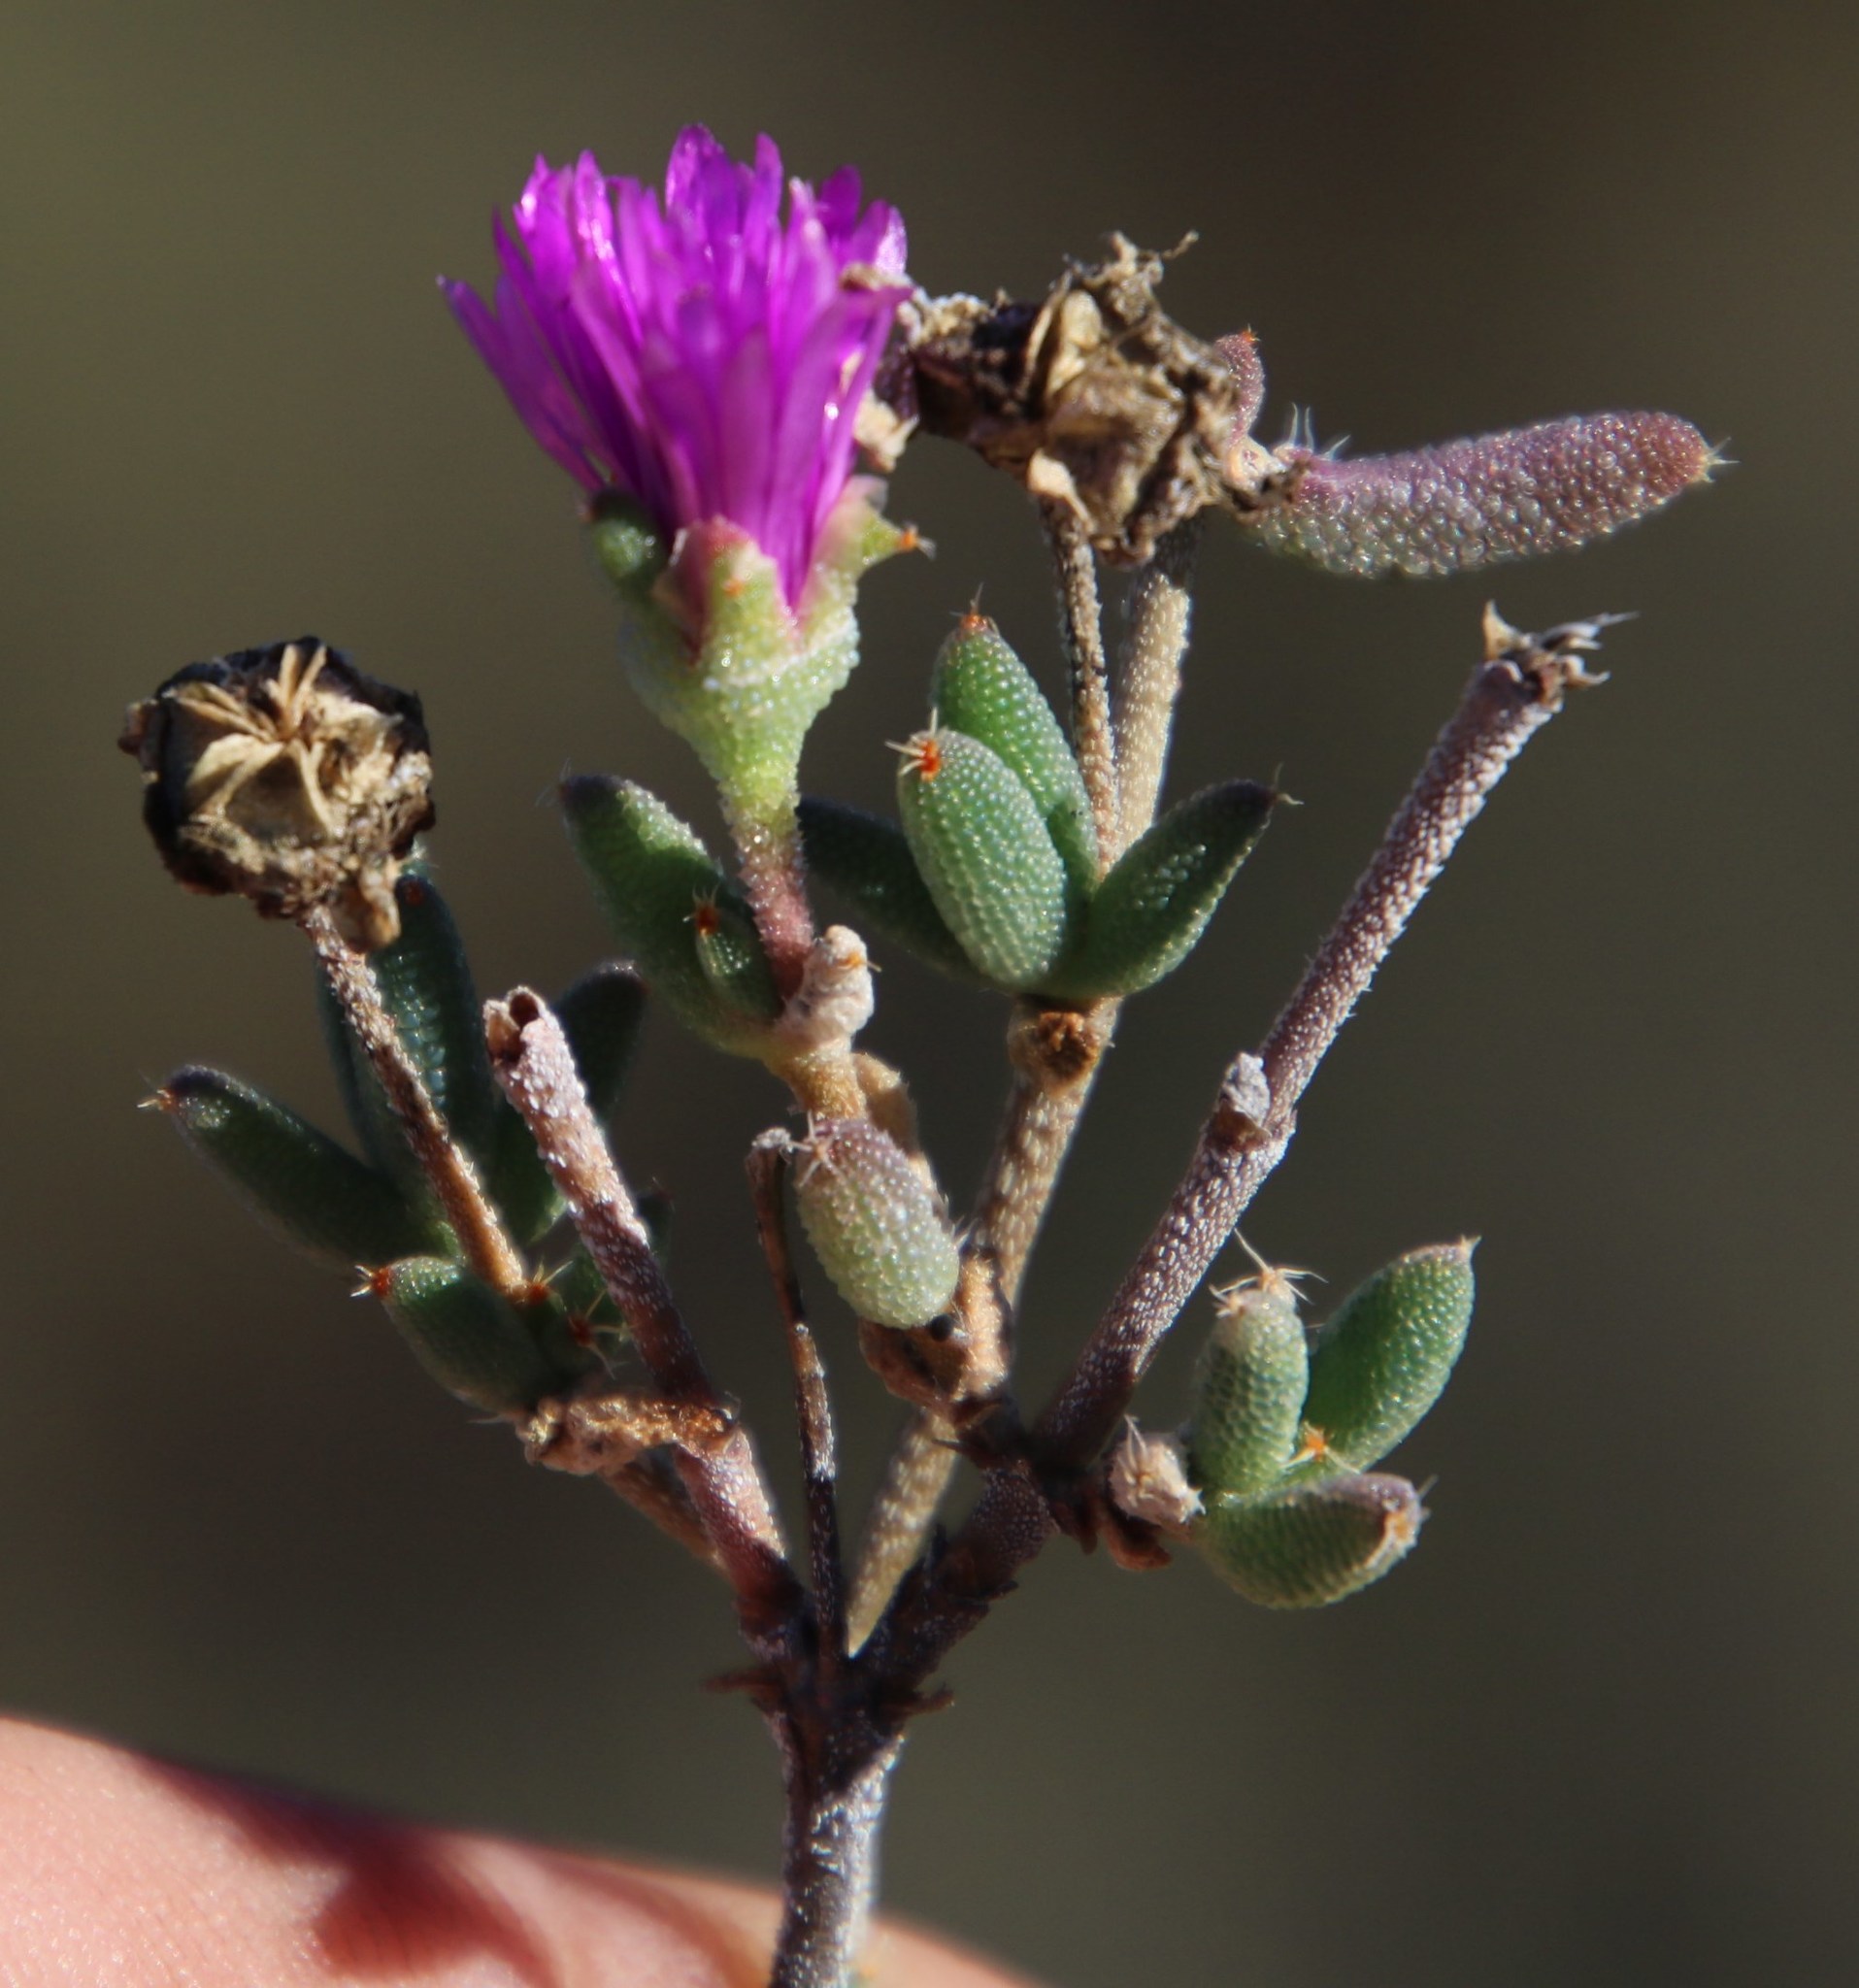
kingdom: Plantae
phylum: Tracheophyta
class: Magnoliopsida
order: Caryophyllales
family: Aizoaceae
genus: Trichodiadema
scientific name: Trichodiadema setuliferum
